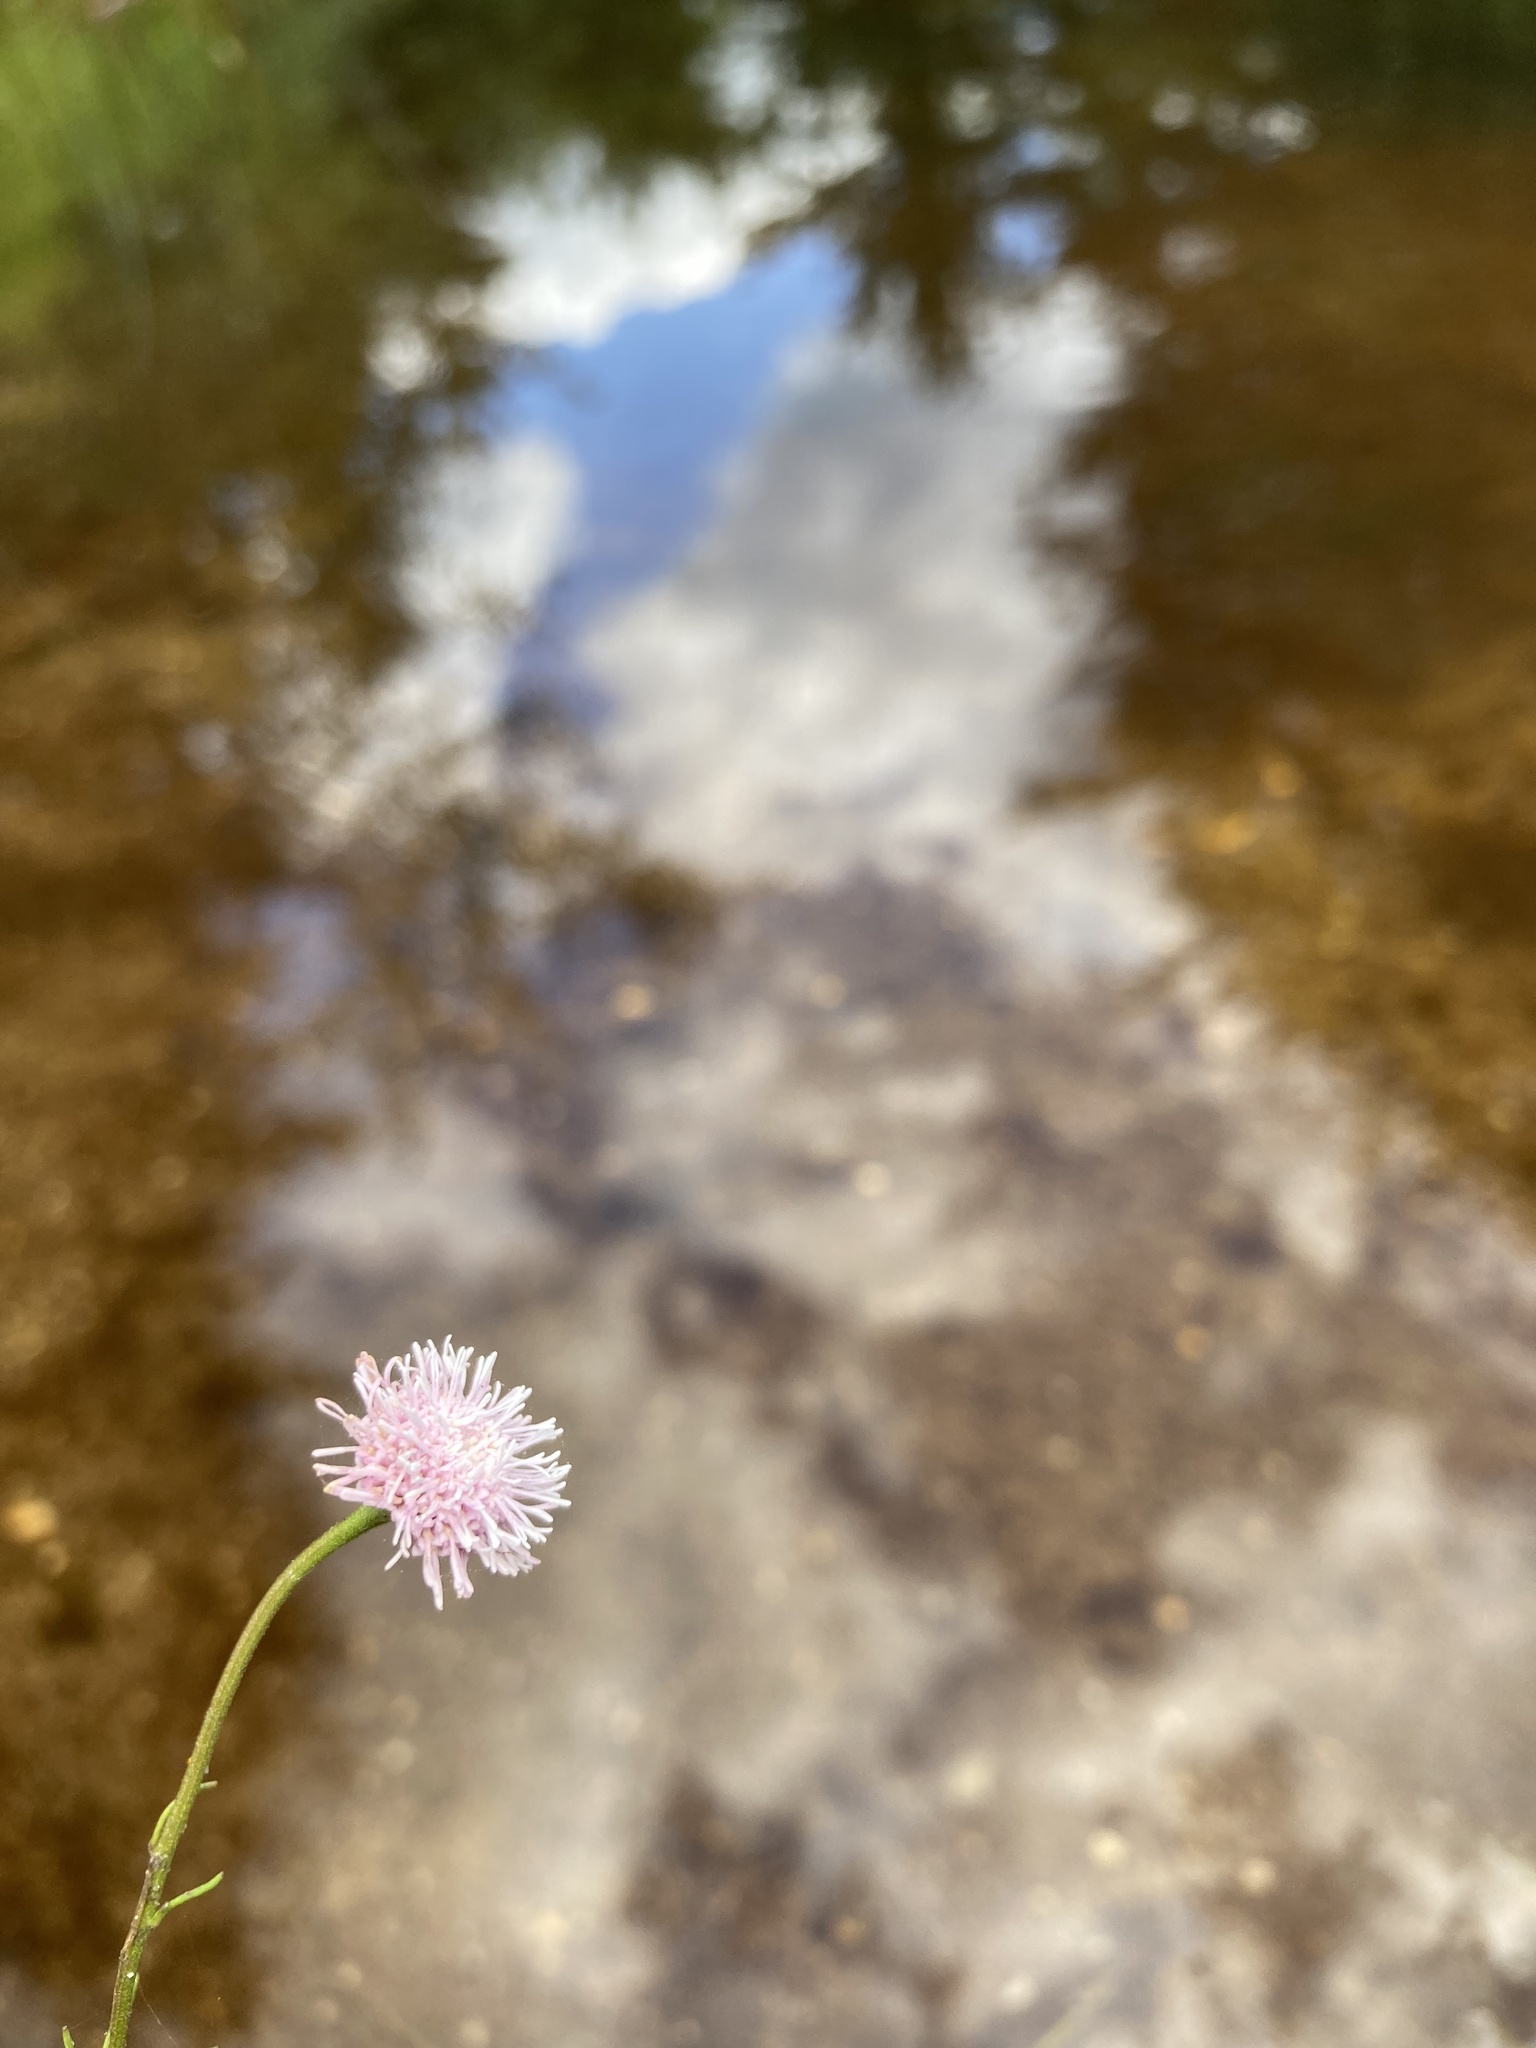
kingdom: Plantae
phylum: Tracheophyta
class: Magnoliopsida
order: Asterales
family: Asteraceae
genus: Sclerolepis
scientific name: Sclerolepis uniflora
